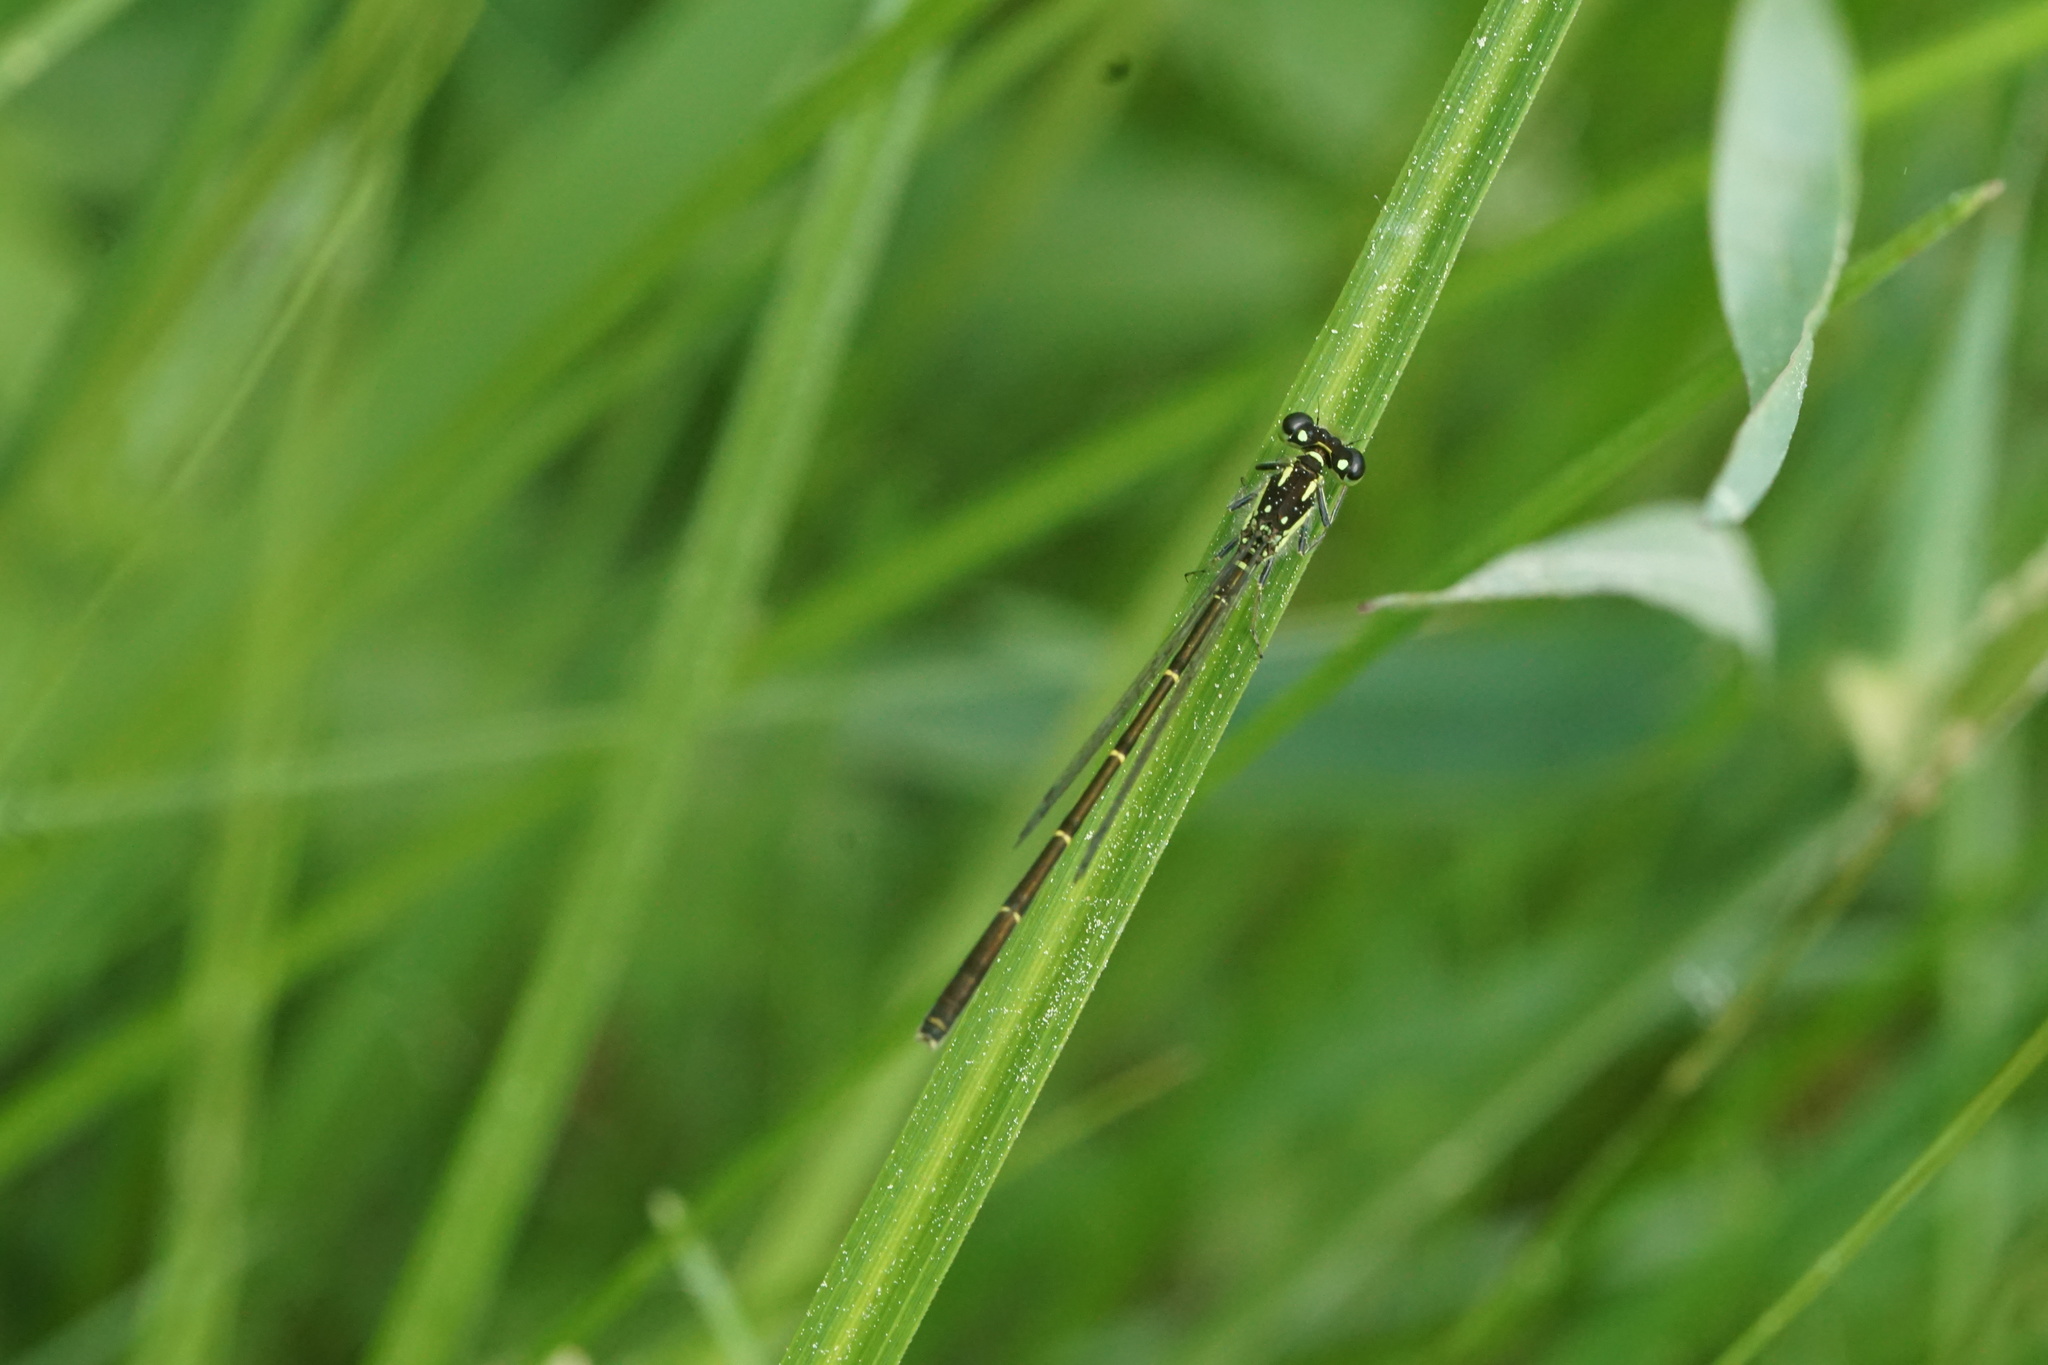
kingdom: Animalia
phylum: Arthropoda
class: Insecta
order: Odonata
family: Coenagrionidae
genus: Ischnura
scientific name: Ischnura posita
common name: Fragile forktail
